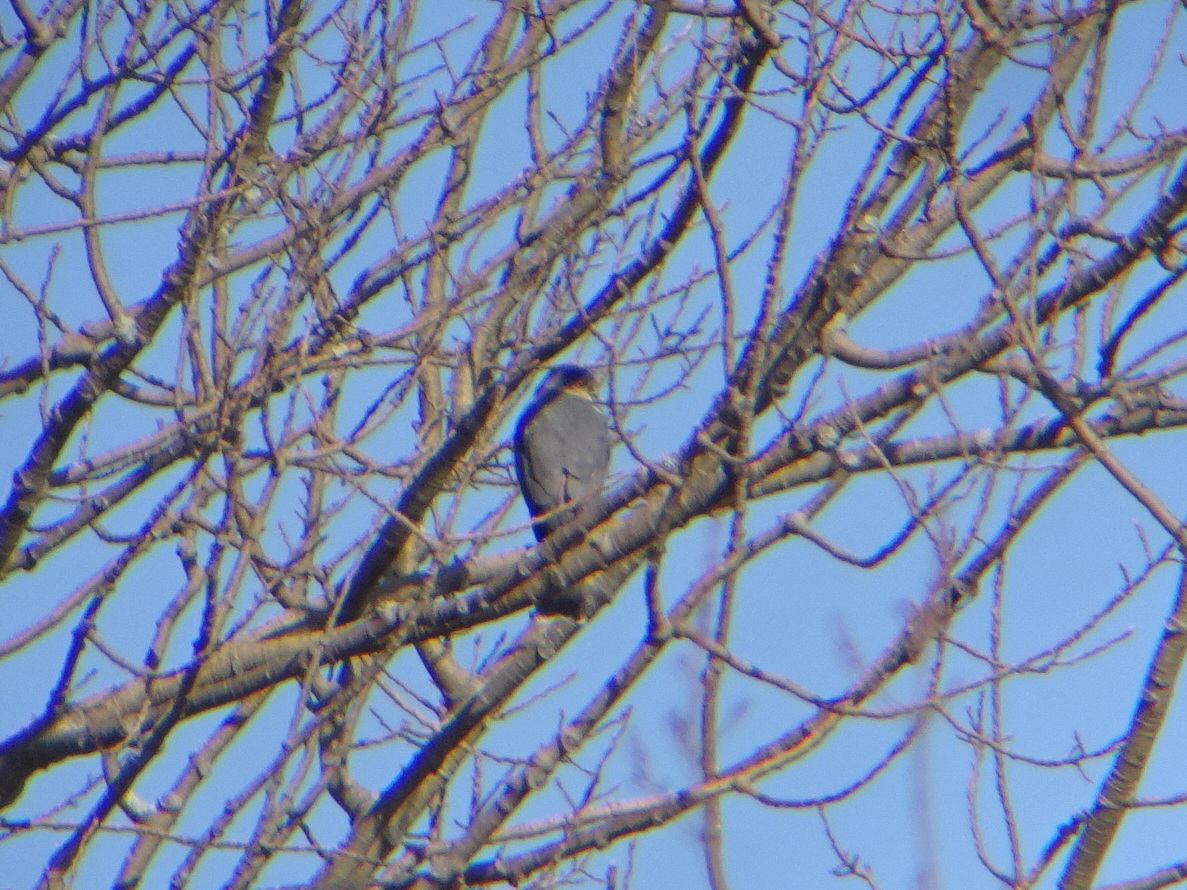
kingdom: Animalia
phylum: Chordata
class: Aves
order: Accipitriformes
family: Accipitridae
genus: Accipiter
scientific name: Accipiter striatus
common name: Sharp-shinned hawk
